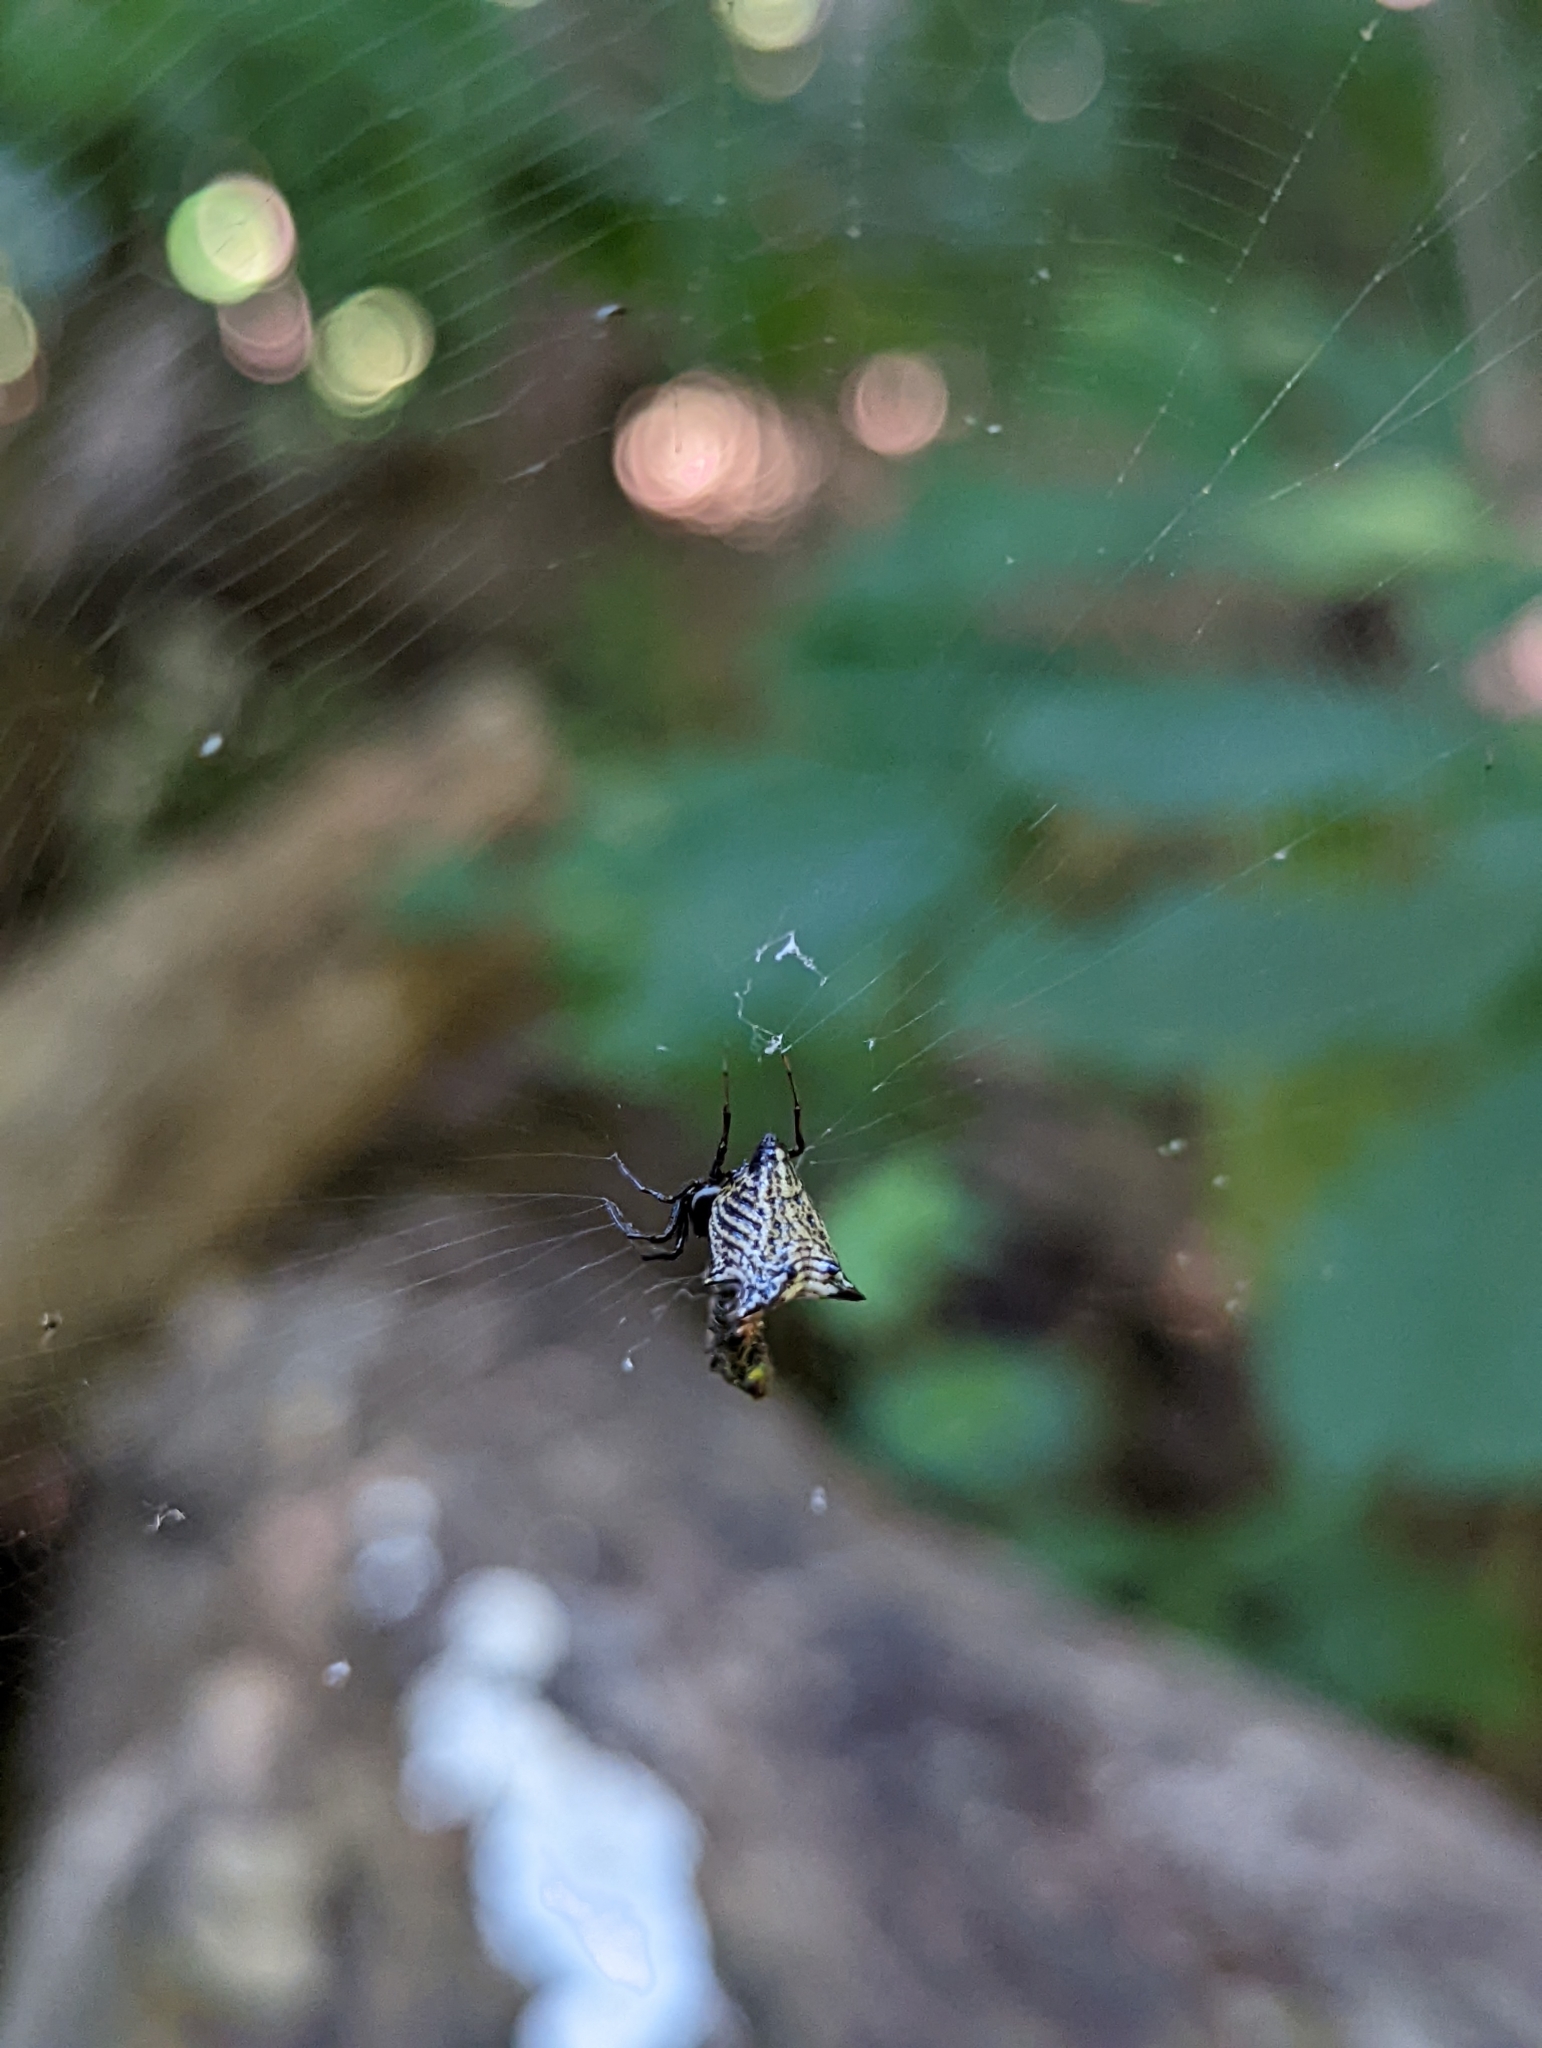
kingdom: Animalia
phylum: Arthropoda
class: Arachnida
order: Araneae
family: Araneidae
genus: Micrathena
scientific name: Micrathena gracilis
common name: Orb weavers
